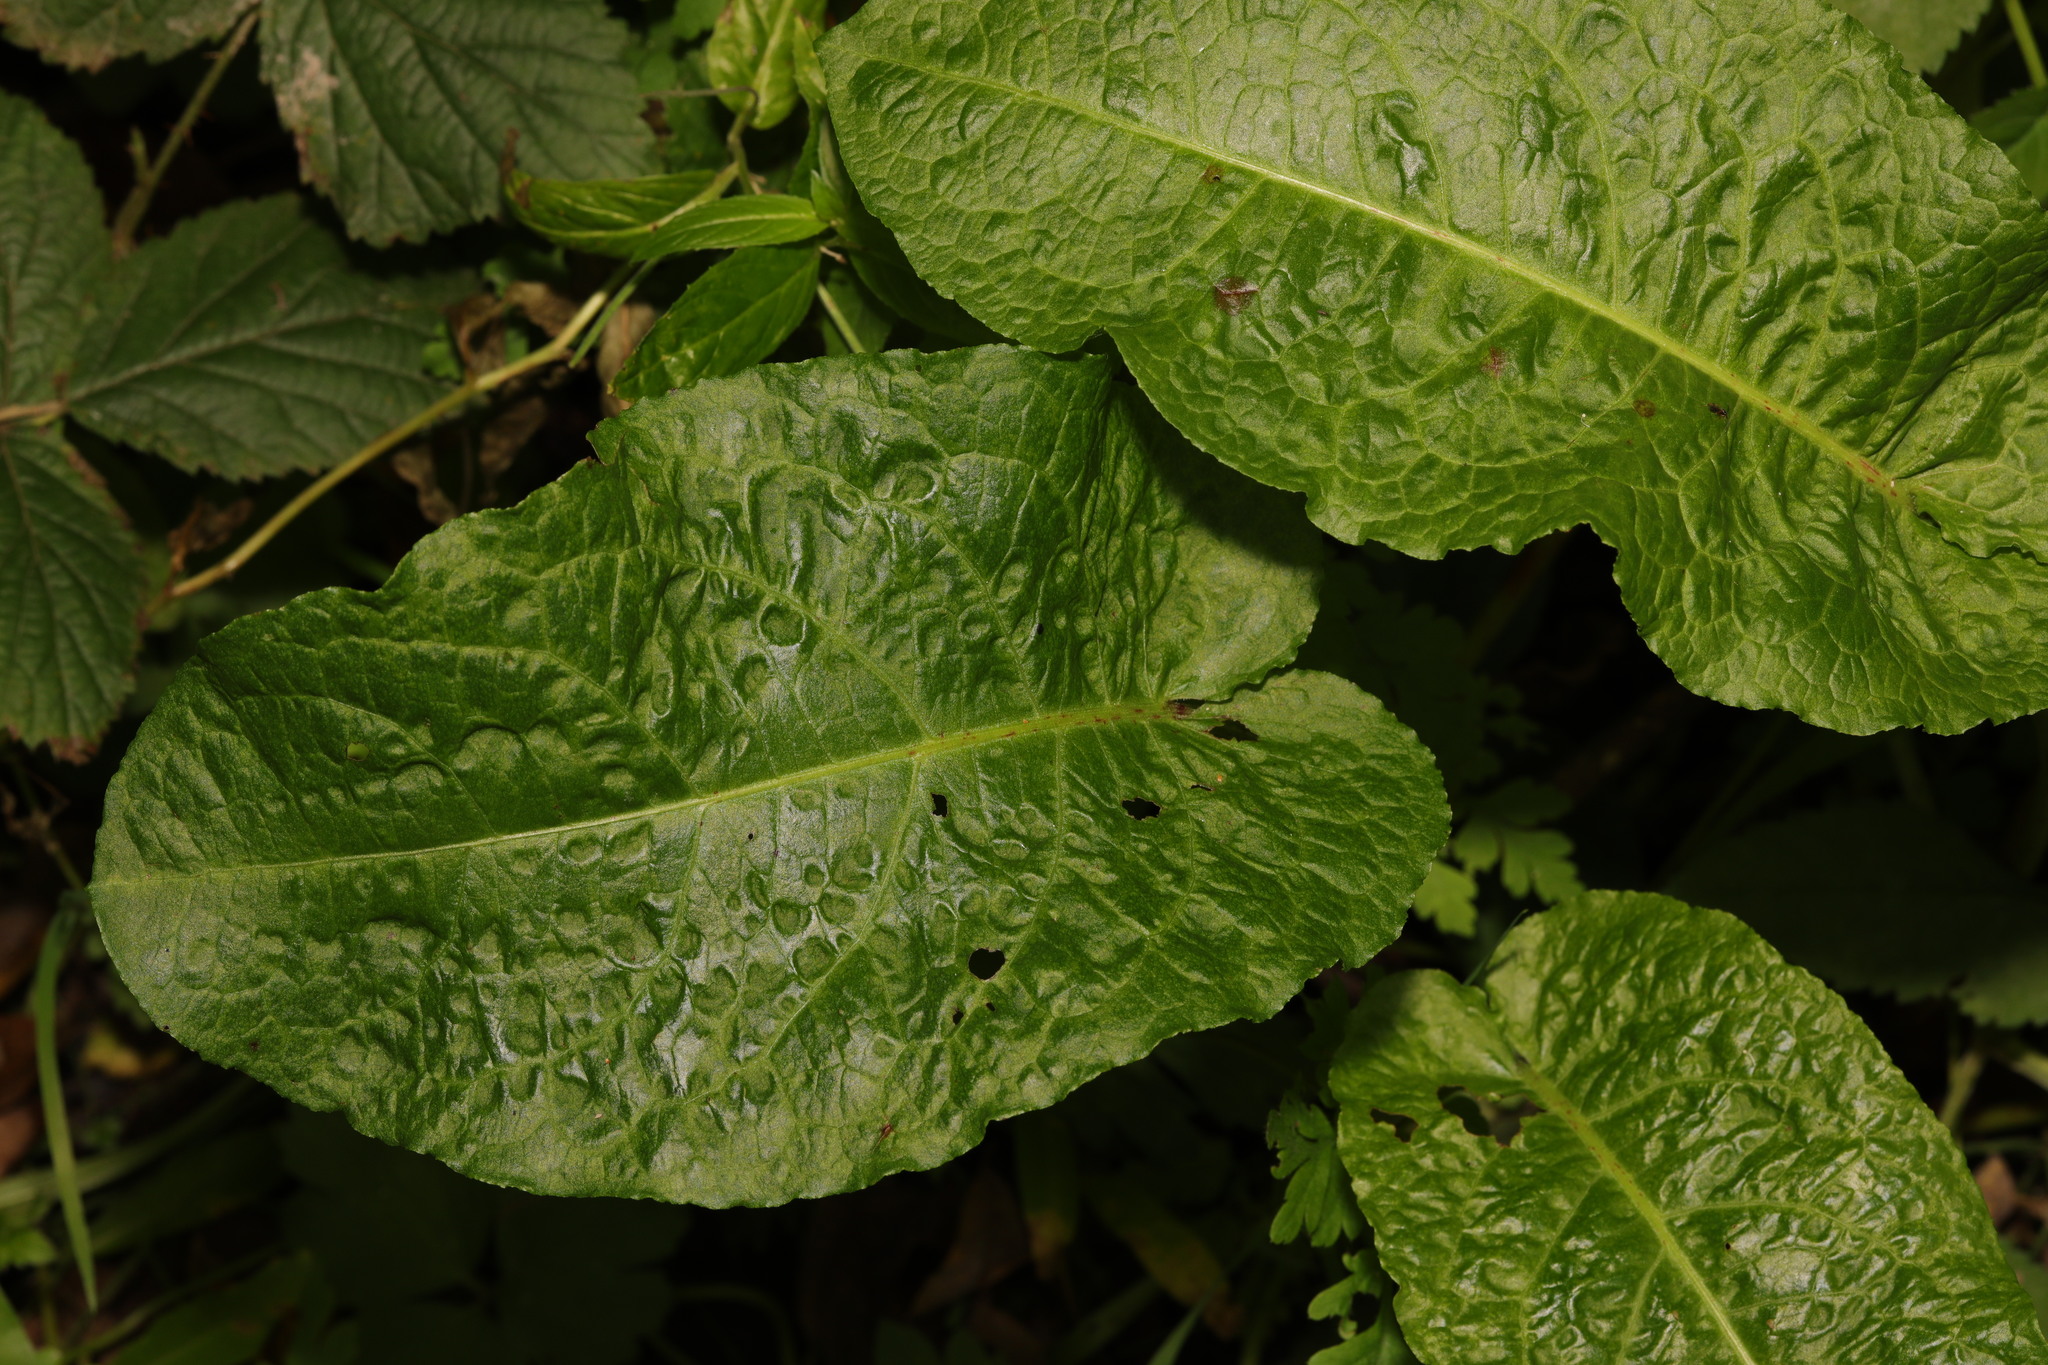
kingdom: Plantae
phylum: Tracheophyta
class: Magnoliopsida
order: Caryophyllales
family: Polygonaceae
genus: Rumex
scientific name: Rumex obtusifolius
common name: Bitter dock
